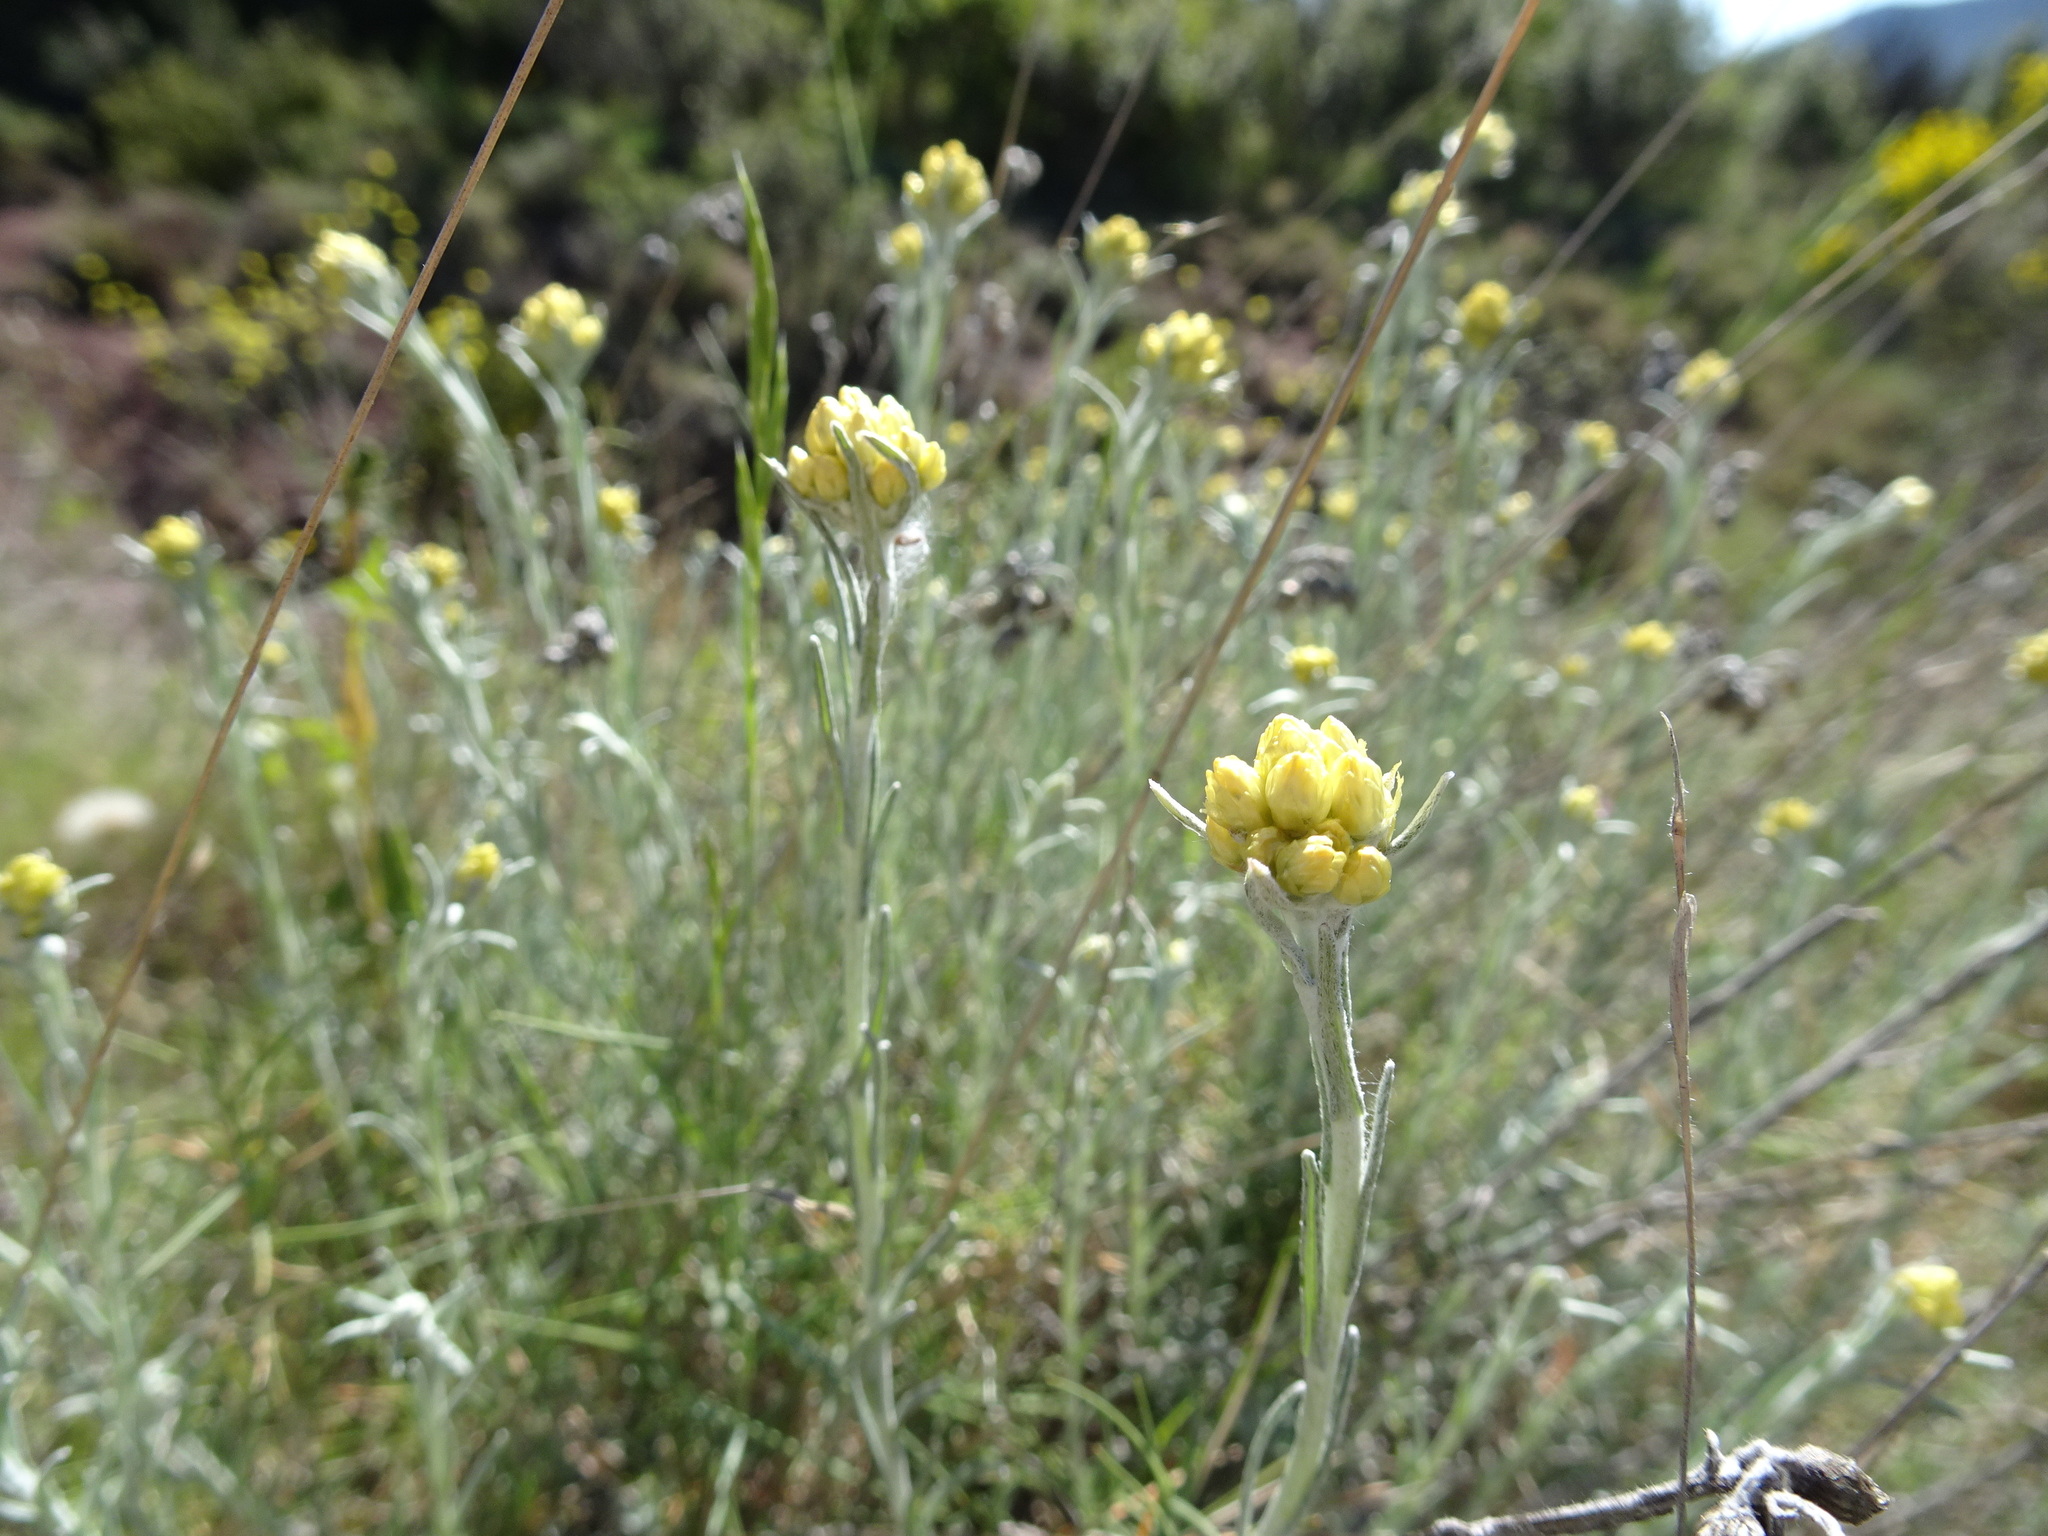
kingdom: Plantae
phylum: Tracheophyta
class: Magnoliopsida
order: Asterales
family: Asteraceae
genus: Helichrysum
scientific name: Helichrysum stoechas
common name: Goldilocks
